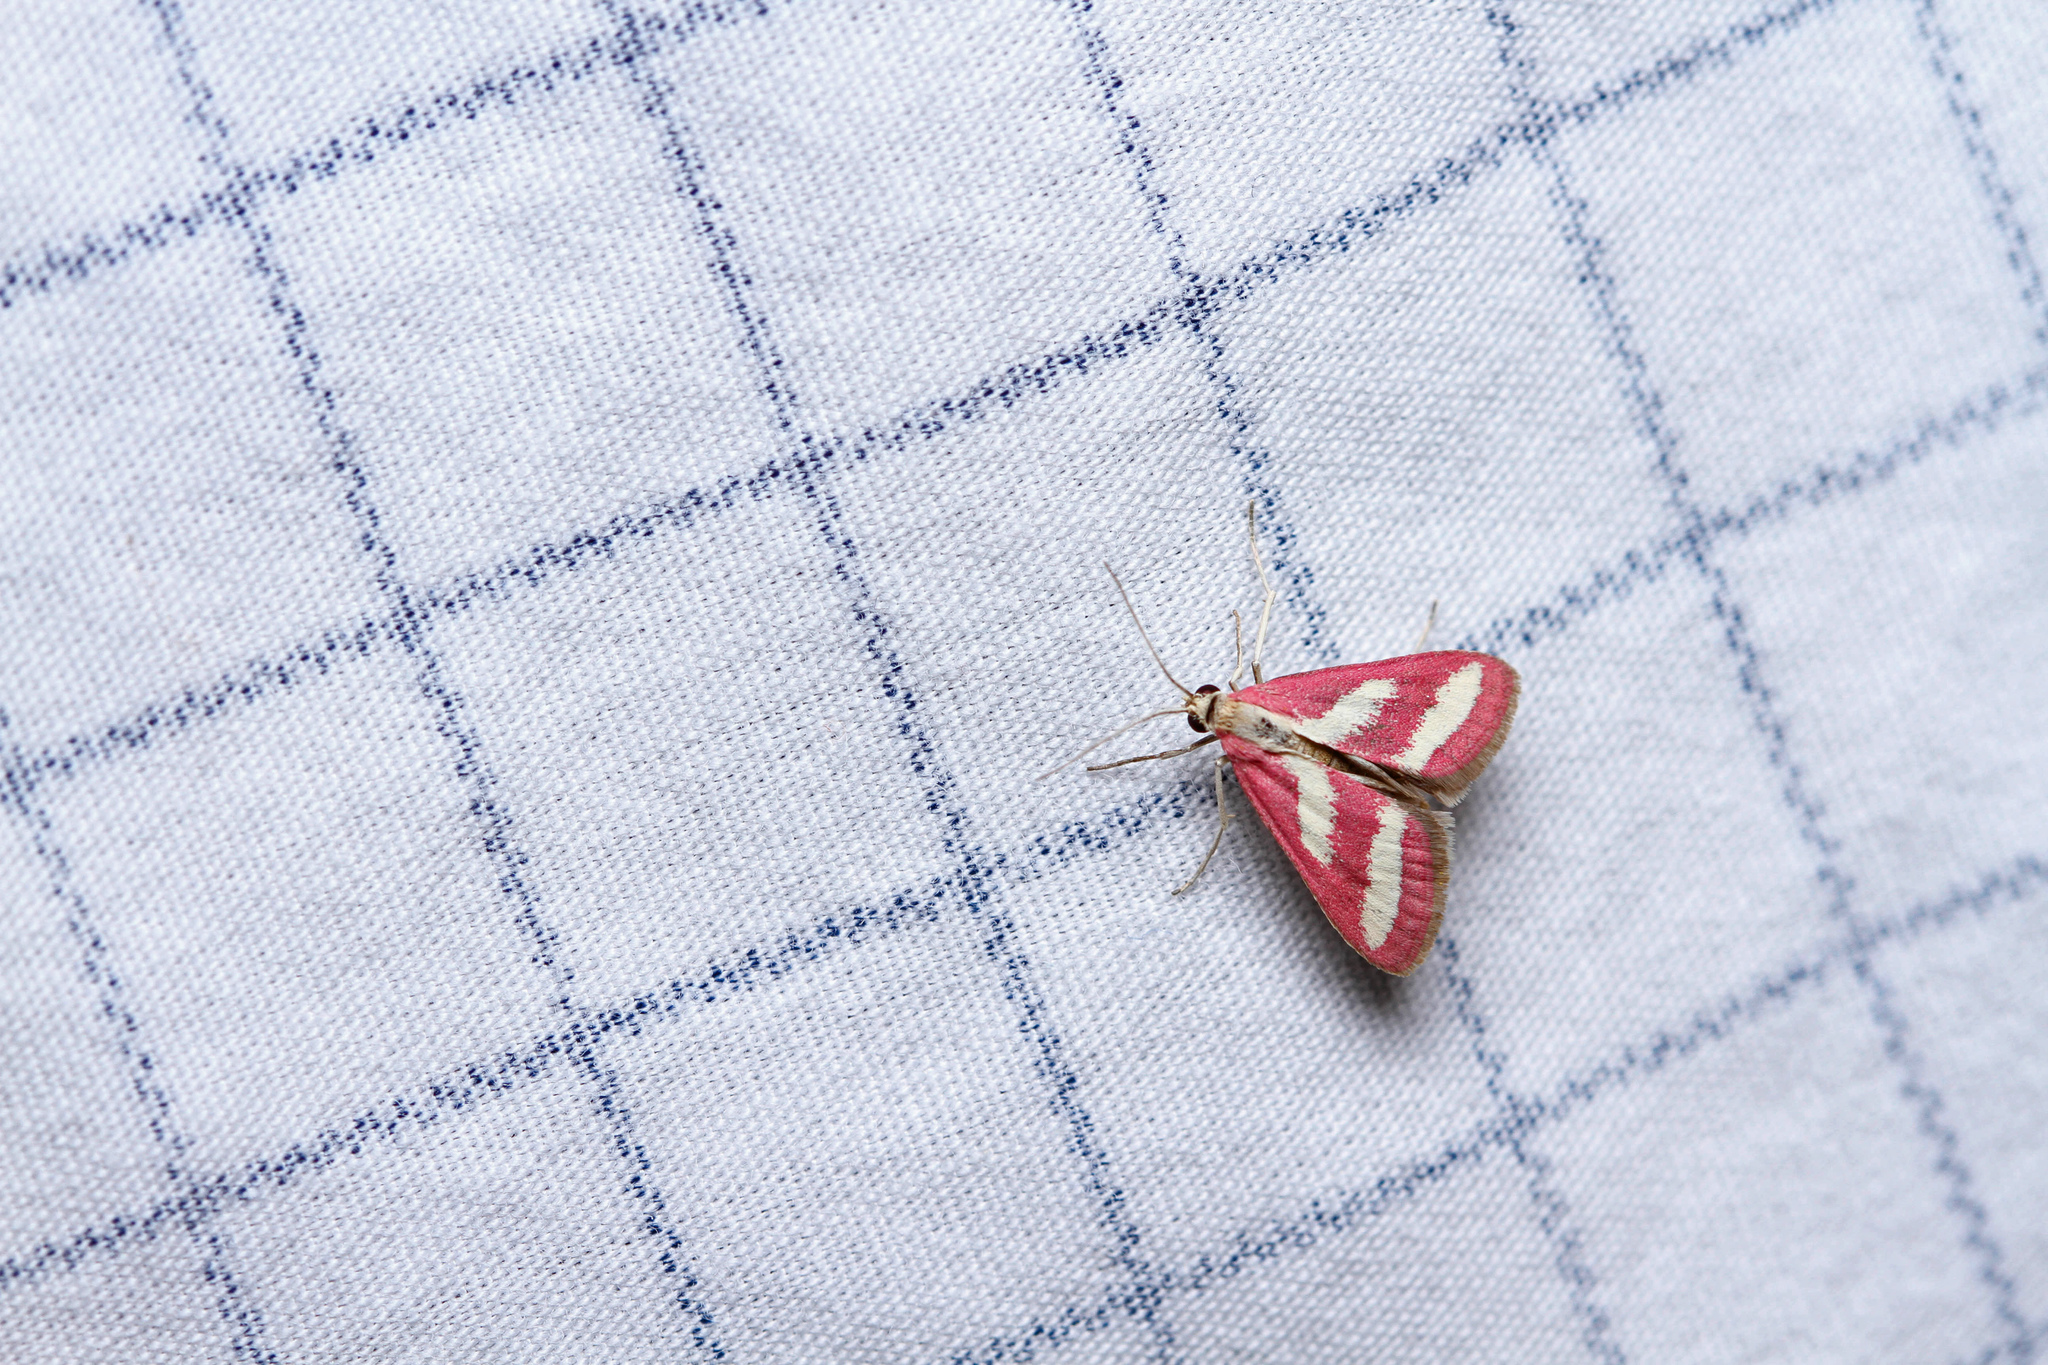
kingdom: Animalia
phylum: Arthropoda
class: Insecta
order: Lepidoptera
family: Crambidae
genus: Noctueliopsis
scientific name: Noctueliopsis rhodoxanthinalis
